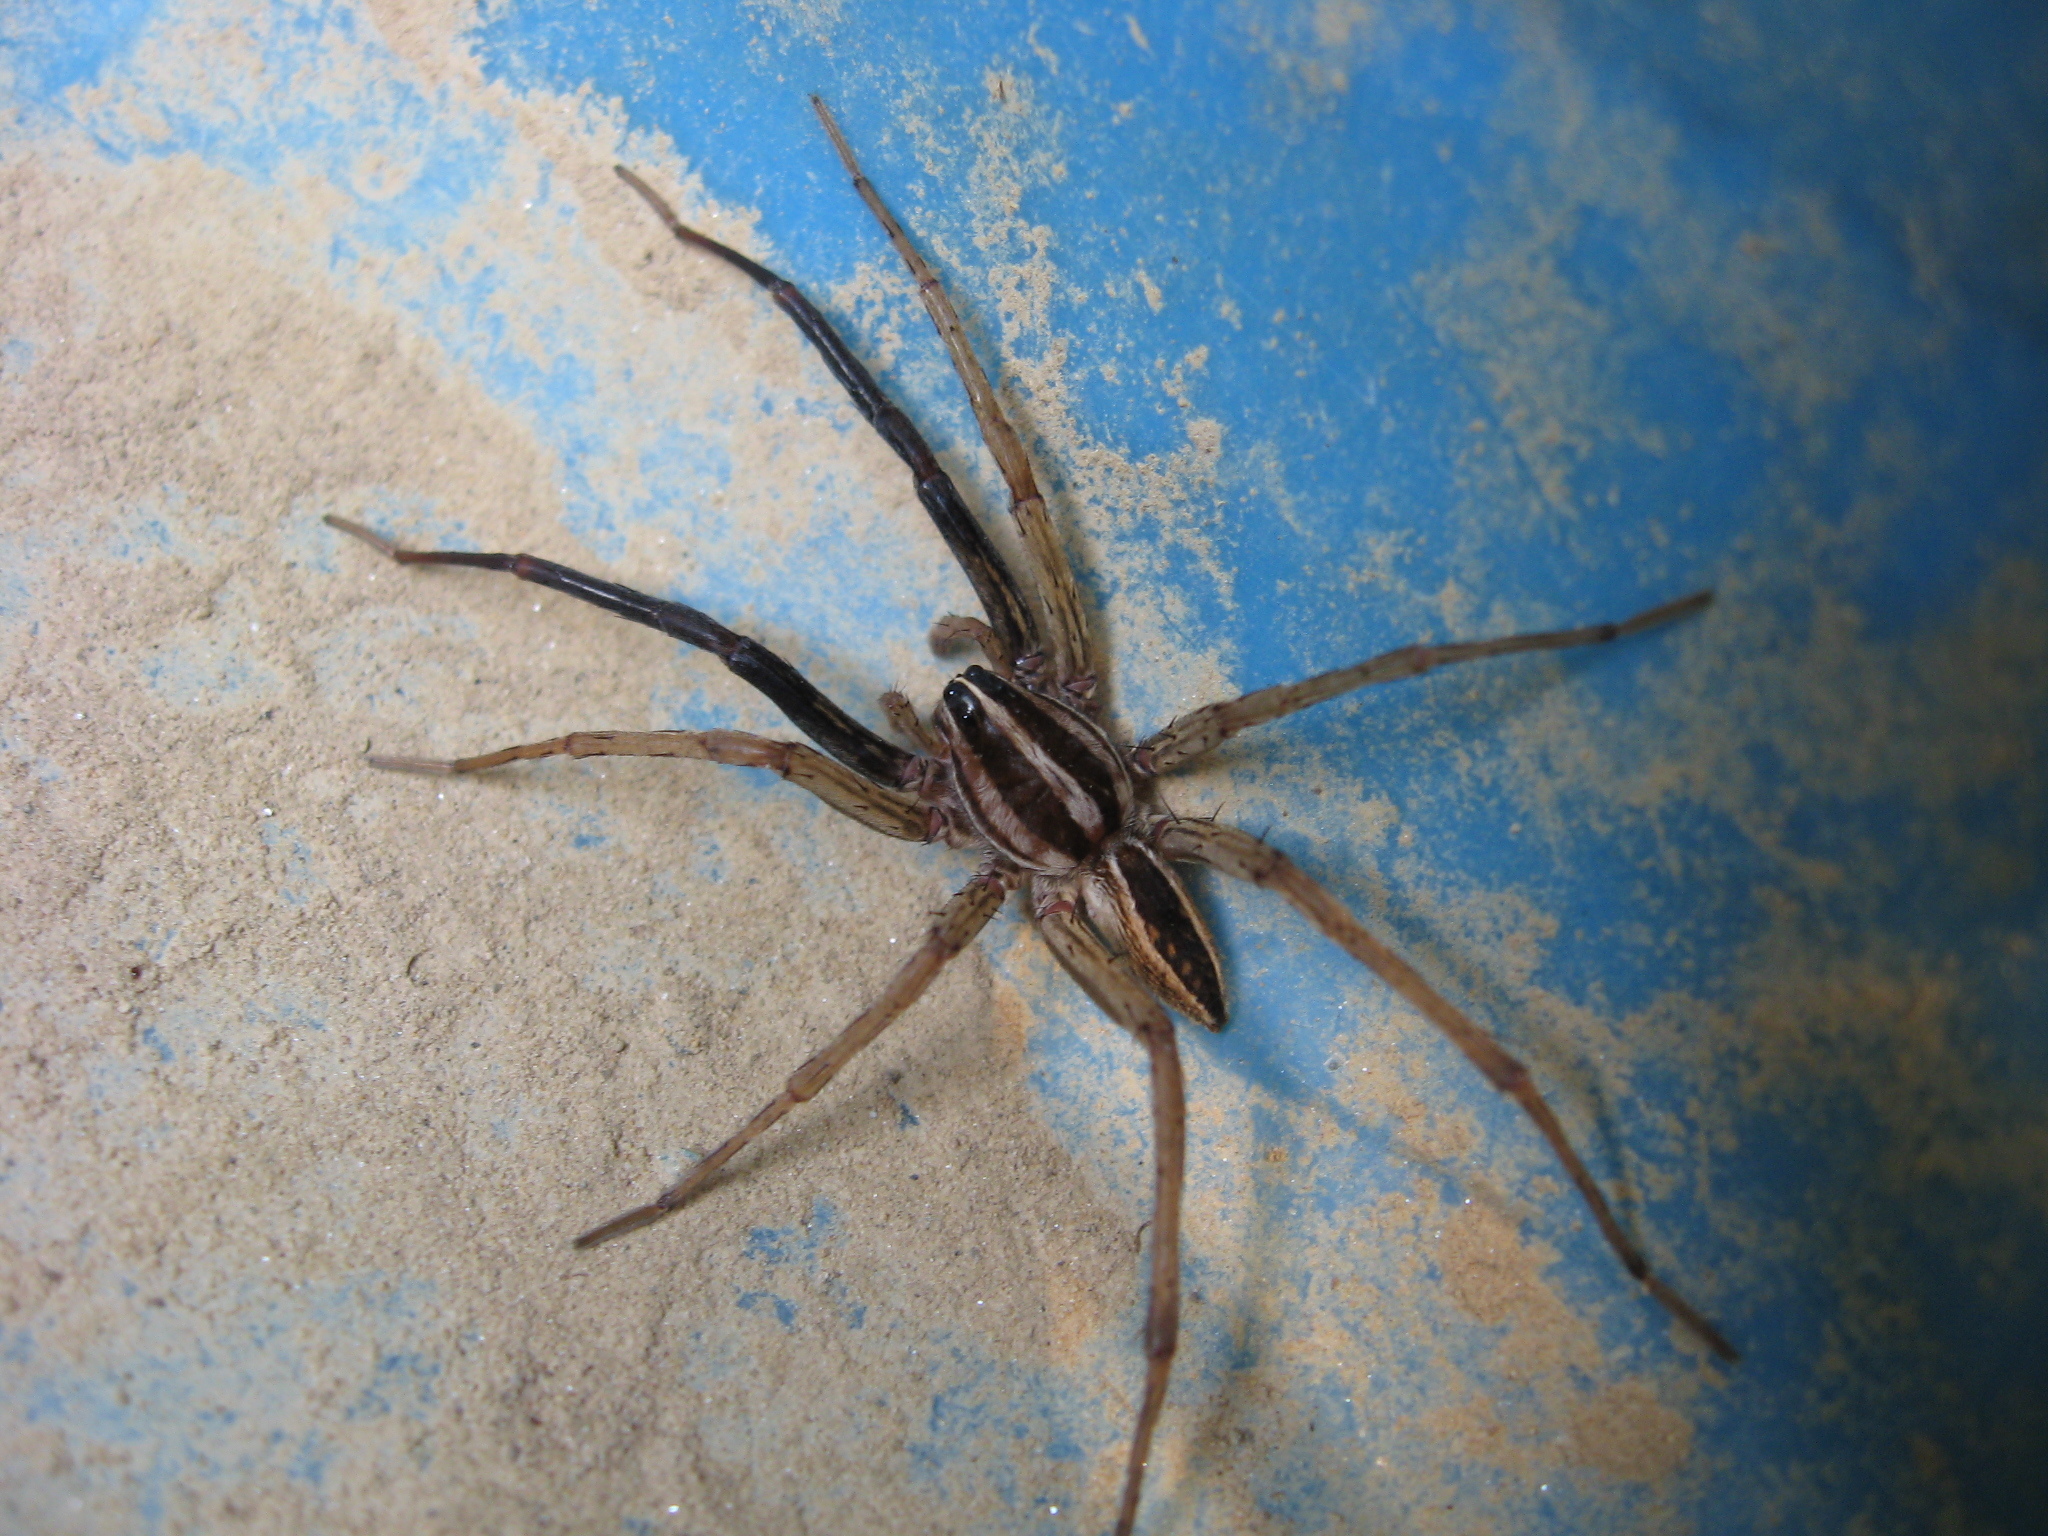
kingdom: Animalia
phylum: Arthropoda
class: Arachnida
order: Araneae
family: Lycosidae
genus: Rabidosa
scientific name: Rabidosa rabida
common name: Rabid wolf spider
